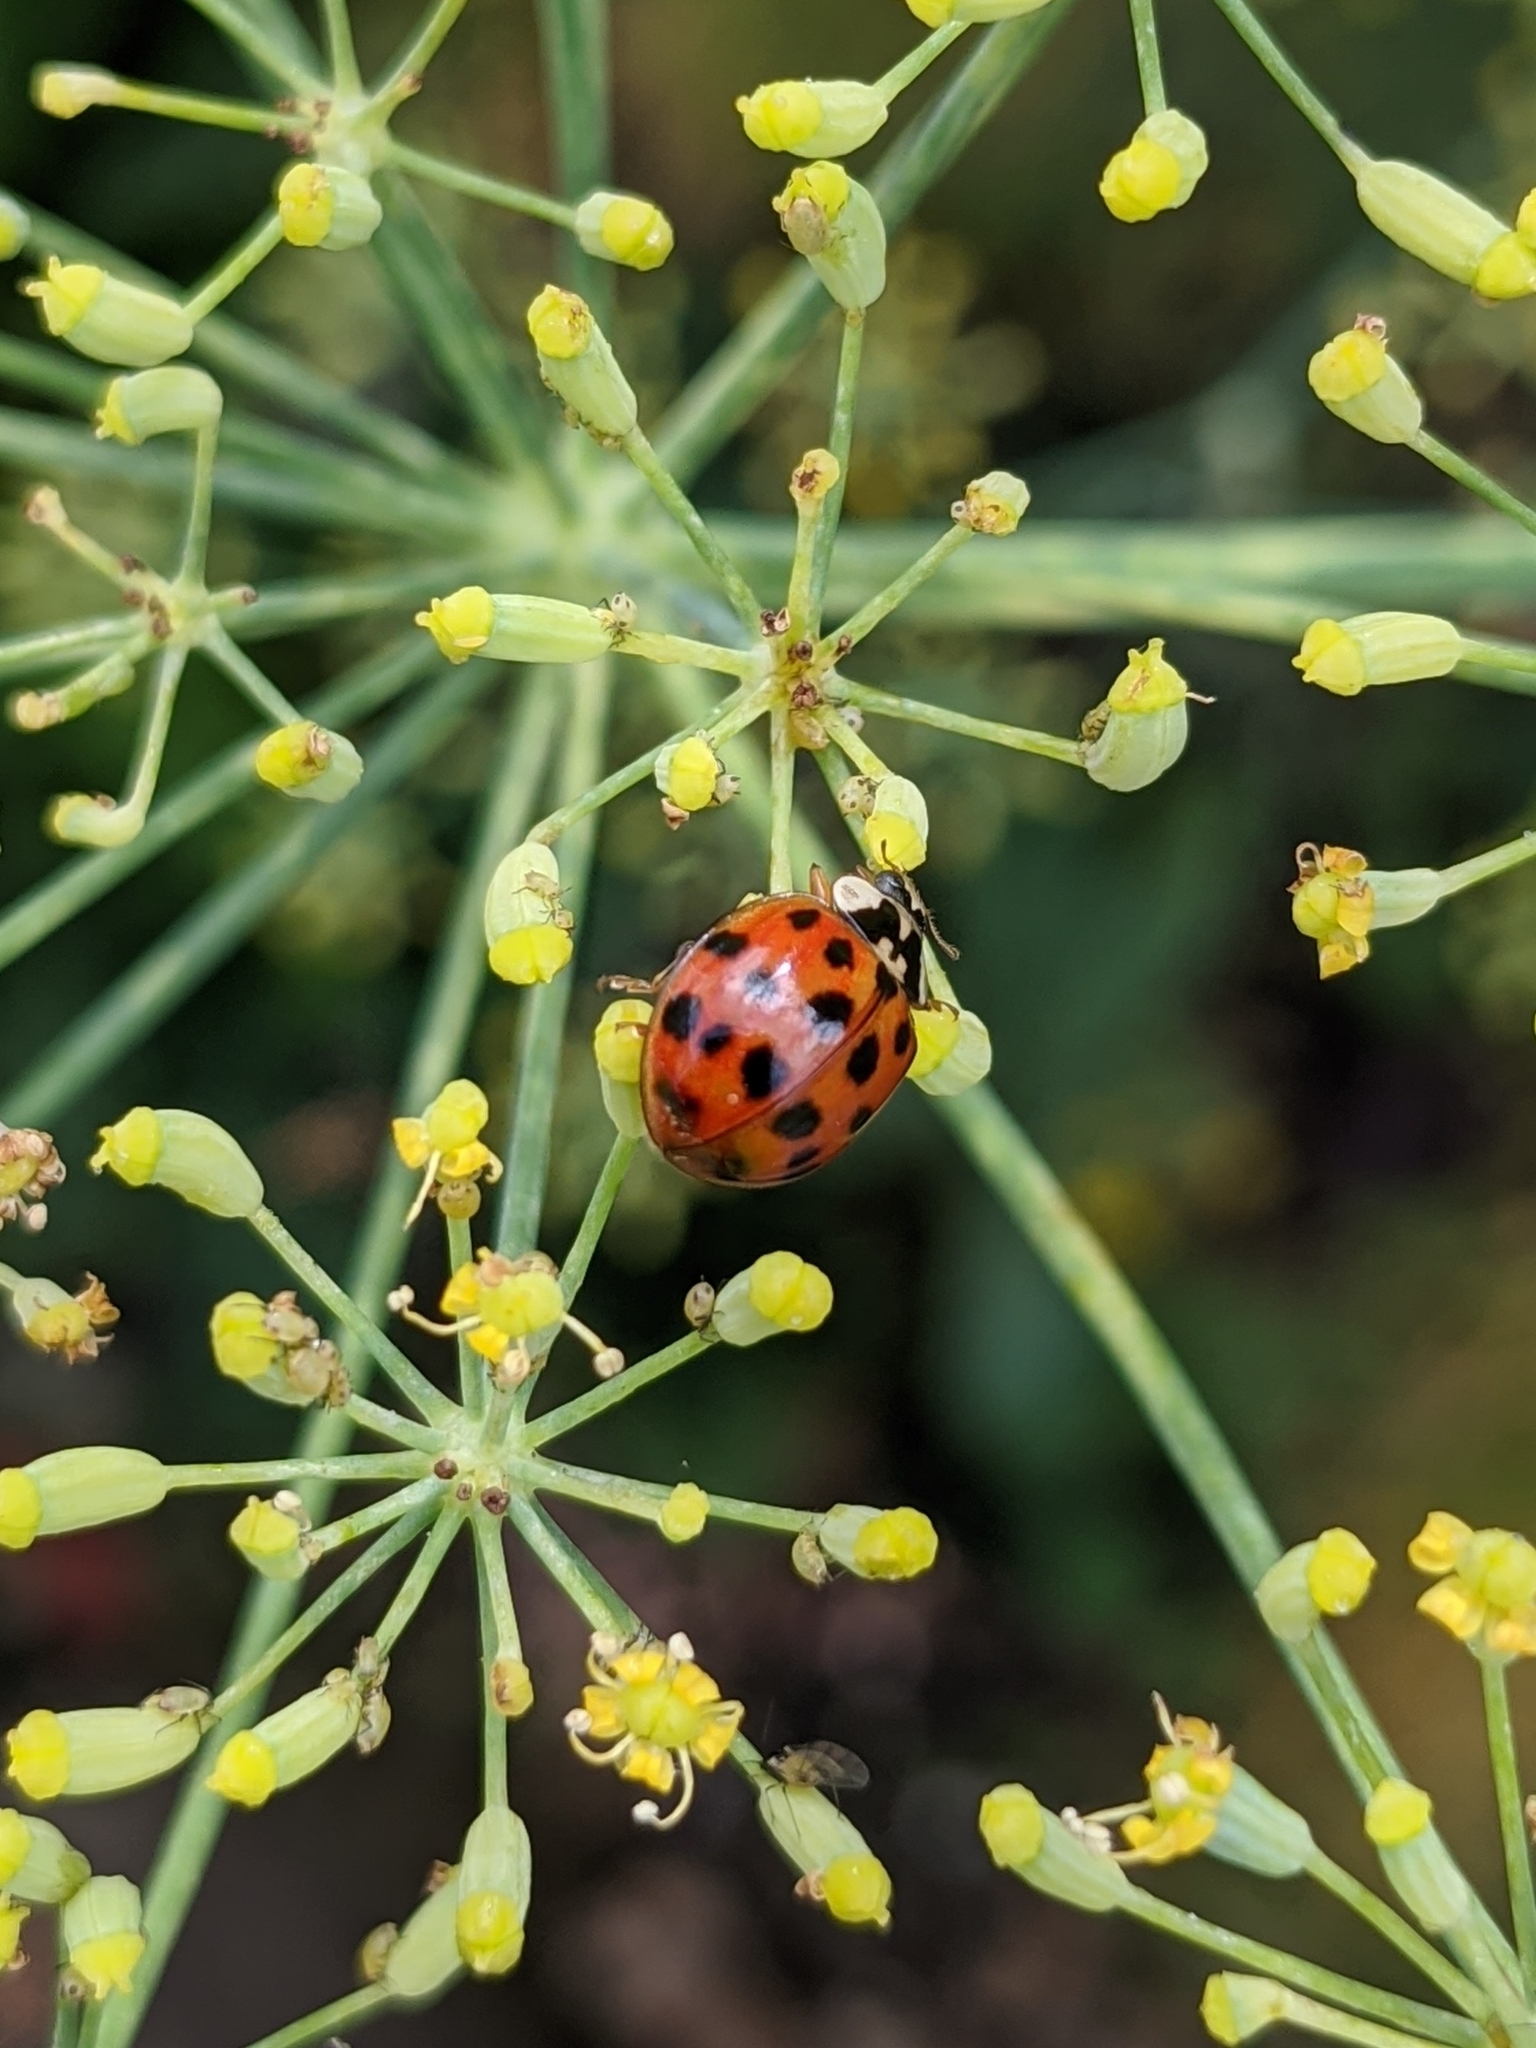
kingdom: Animalia
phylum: Arthropoda
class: Insecta
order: Coleoptera
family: Coccinellidae
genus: Harmonia
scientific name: Harmonia axyridis
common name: Harlequin ladybird
